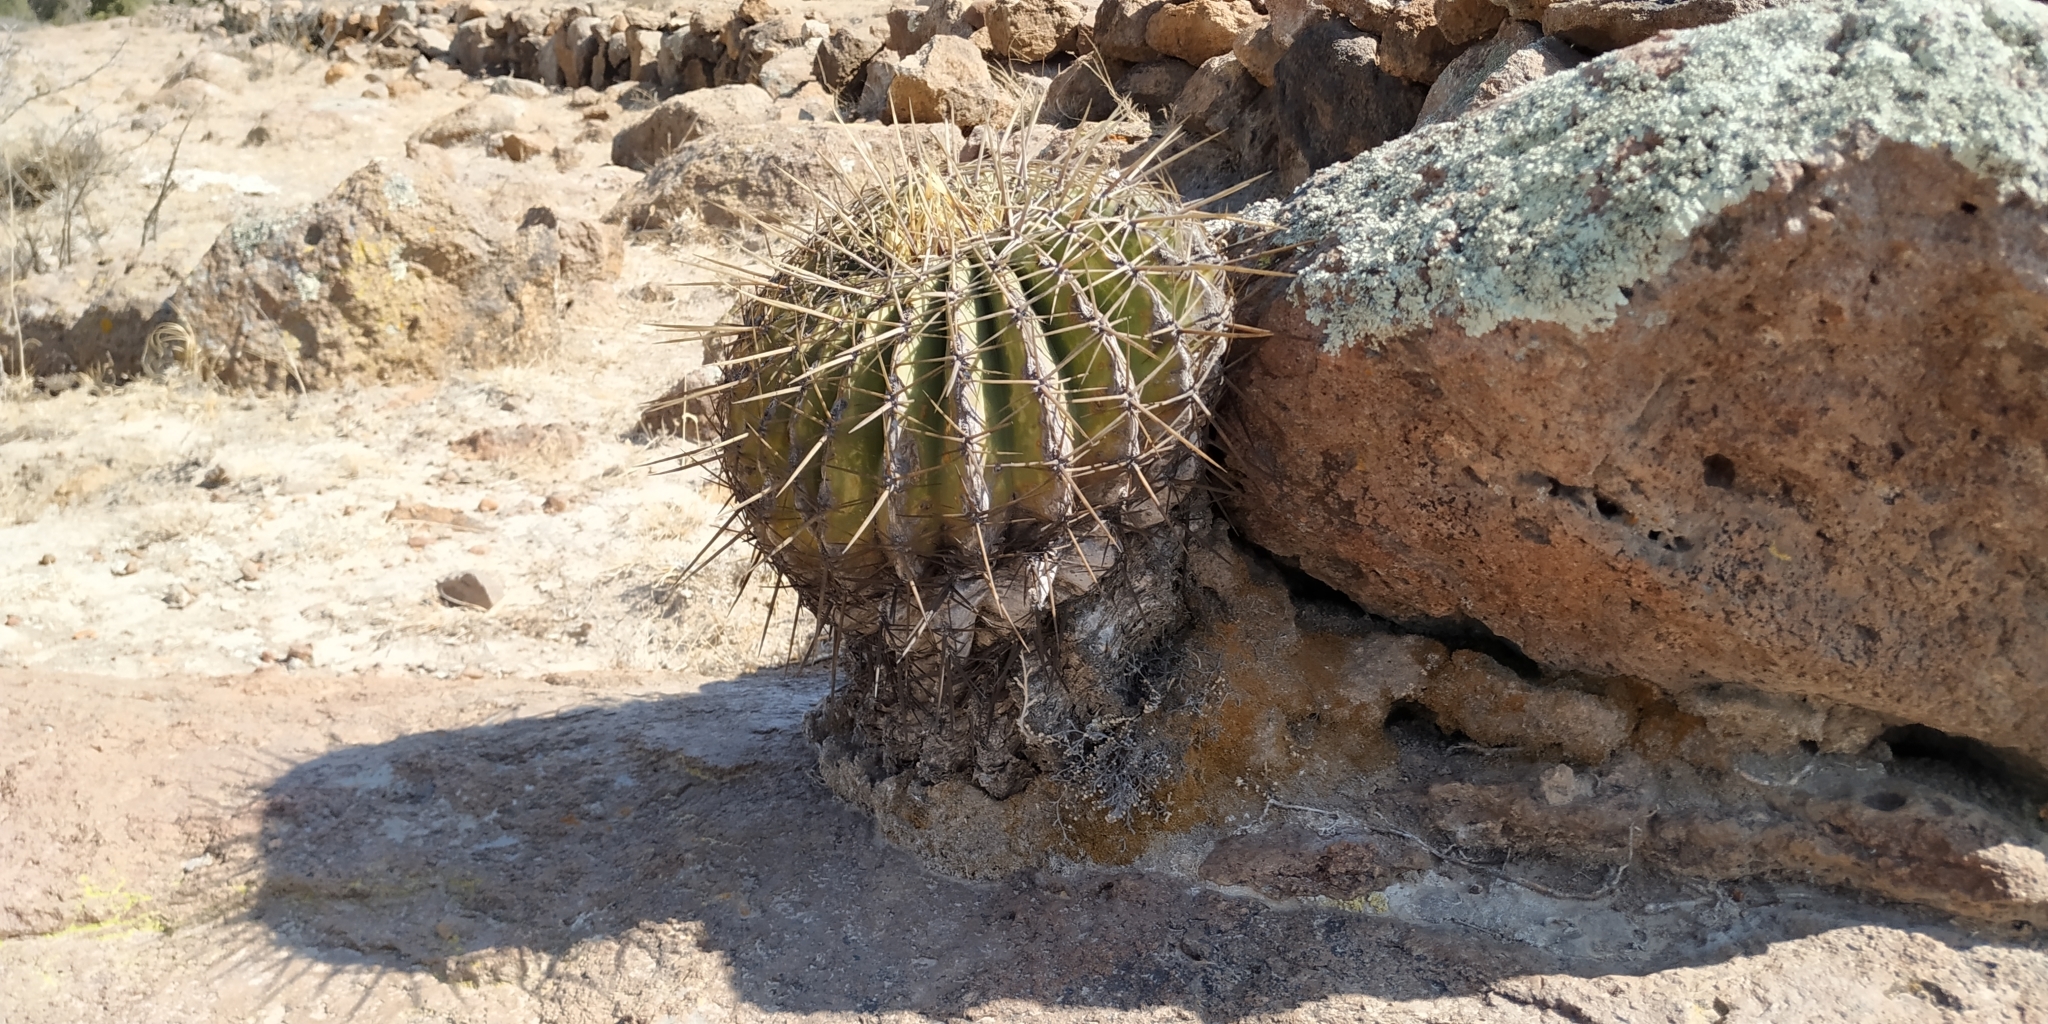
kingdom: Plantae
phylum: Tracheophyta
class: Magnoliopsida
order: Caryophyllales
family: Cactaceae
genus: Bisnaga
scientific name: Bisnaga histrix
